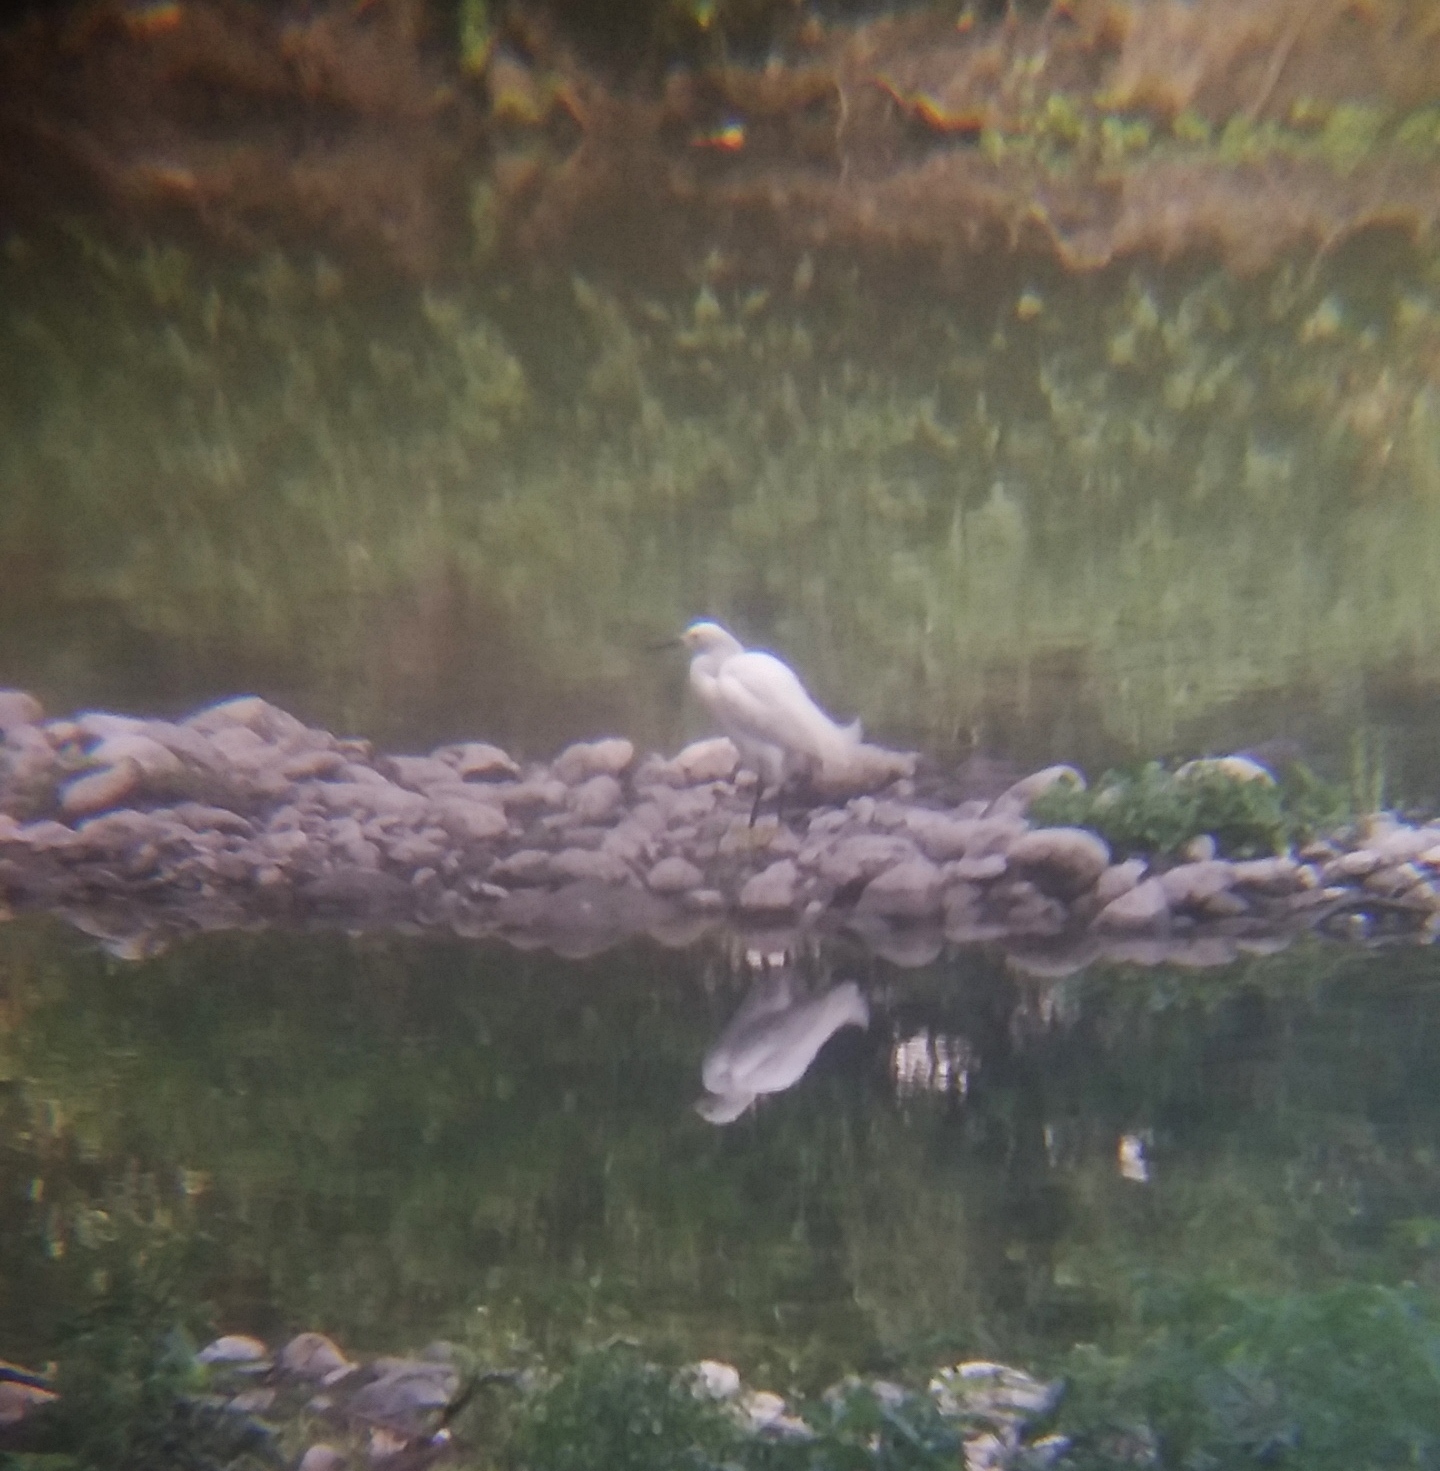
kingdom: Animalia
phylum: Chordata
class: Aves
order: Pelecaniformes
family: Ardeidae
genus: Egretta
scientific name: Egretta thula
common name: Snowy egret
